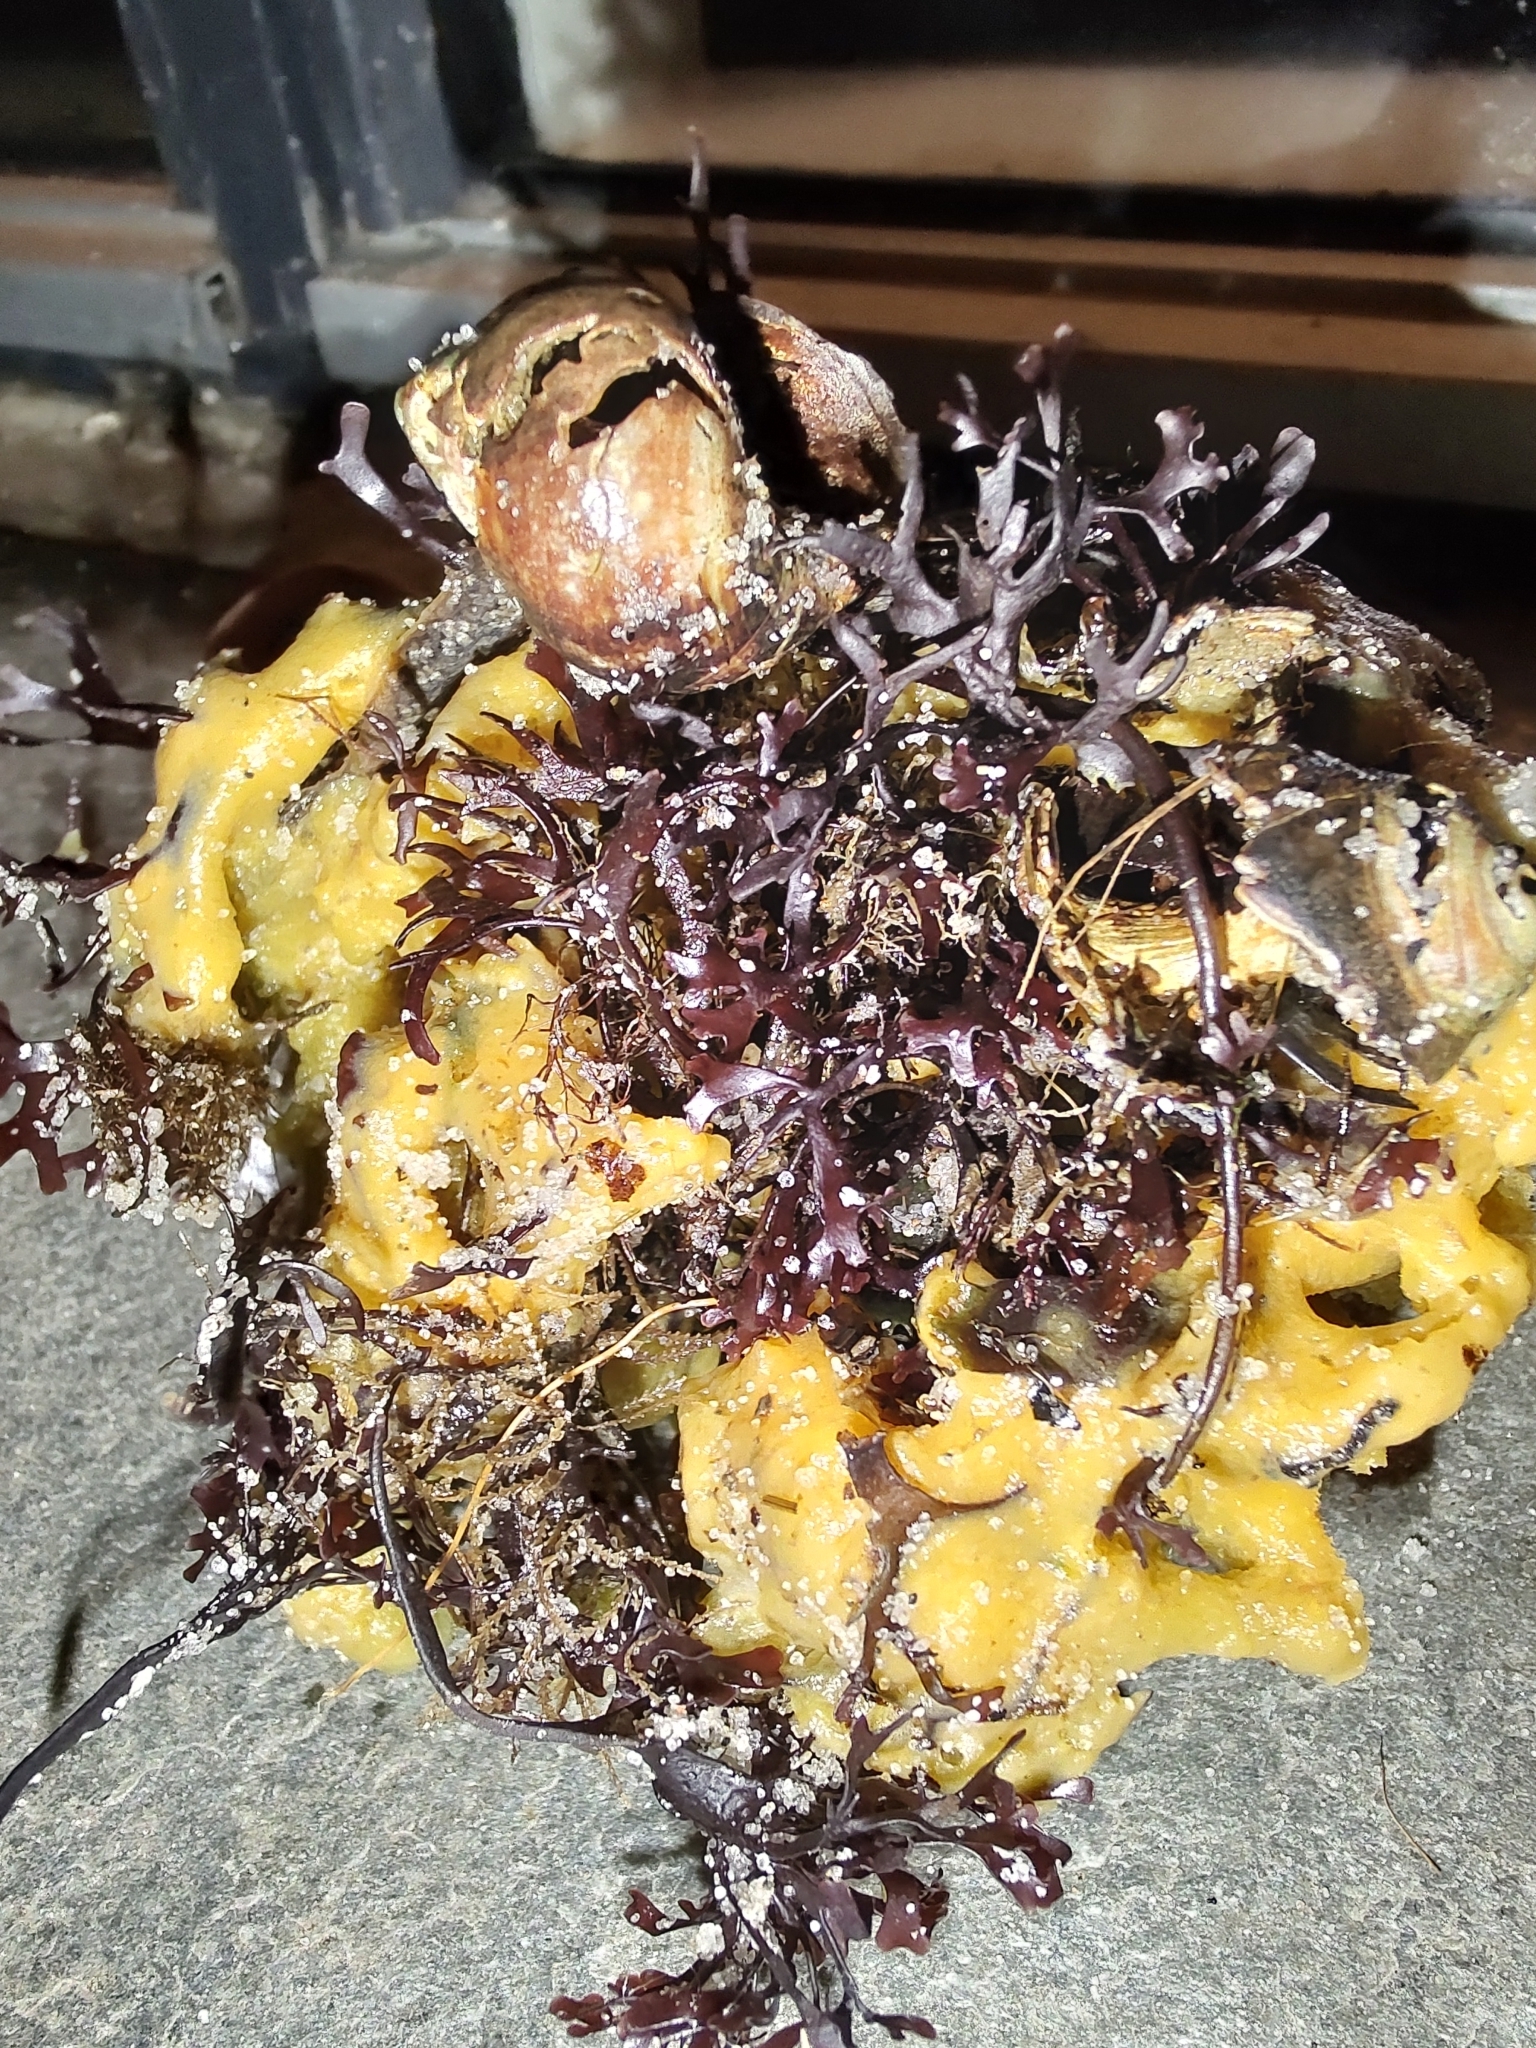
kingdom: Animalia
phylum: Porifera
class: Demospongiae
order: Suberitida
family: Halichondriidae
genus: Halichondria
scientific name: Halichondria panicea
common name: Breadcrumb sponge
